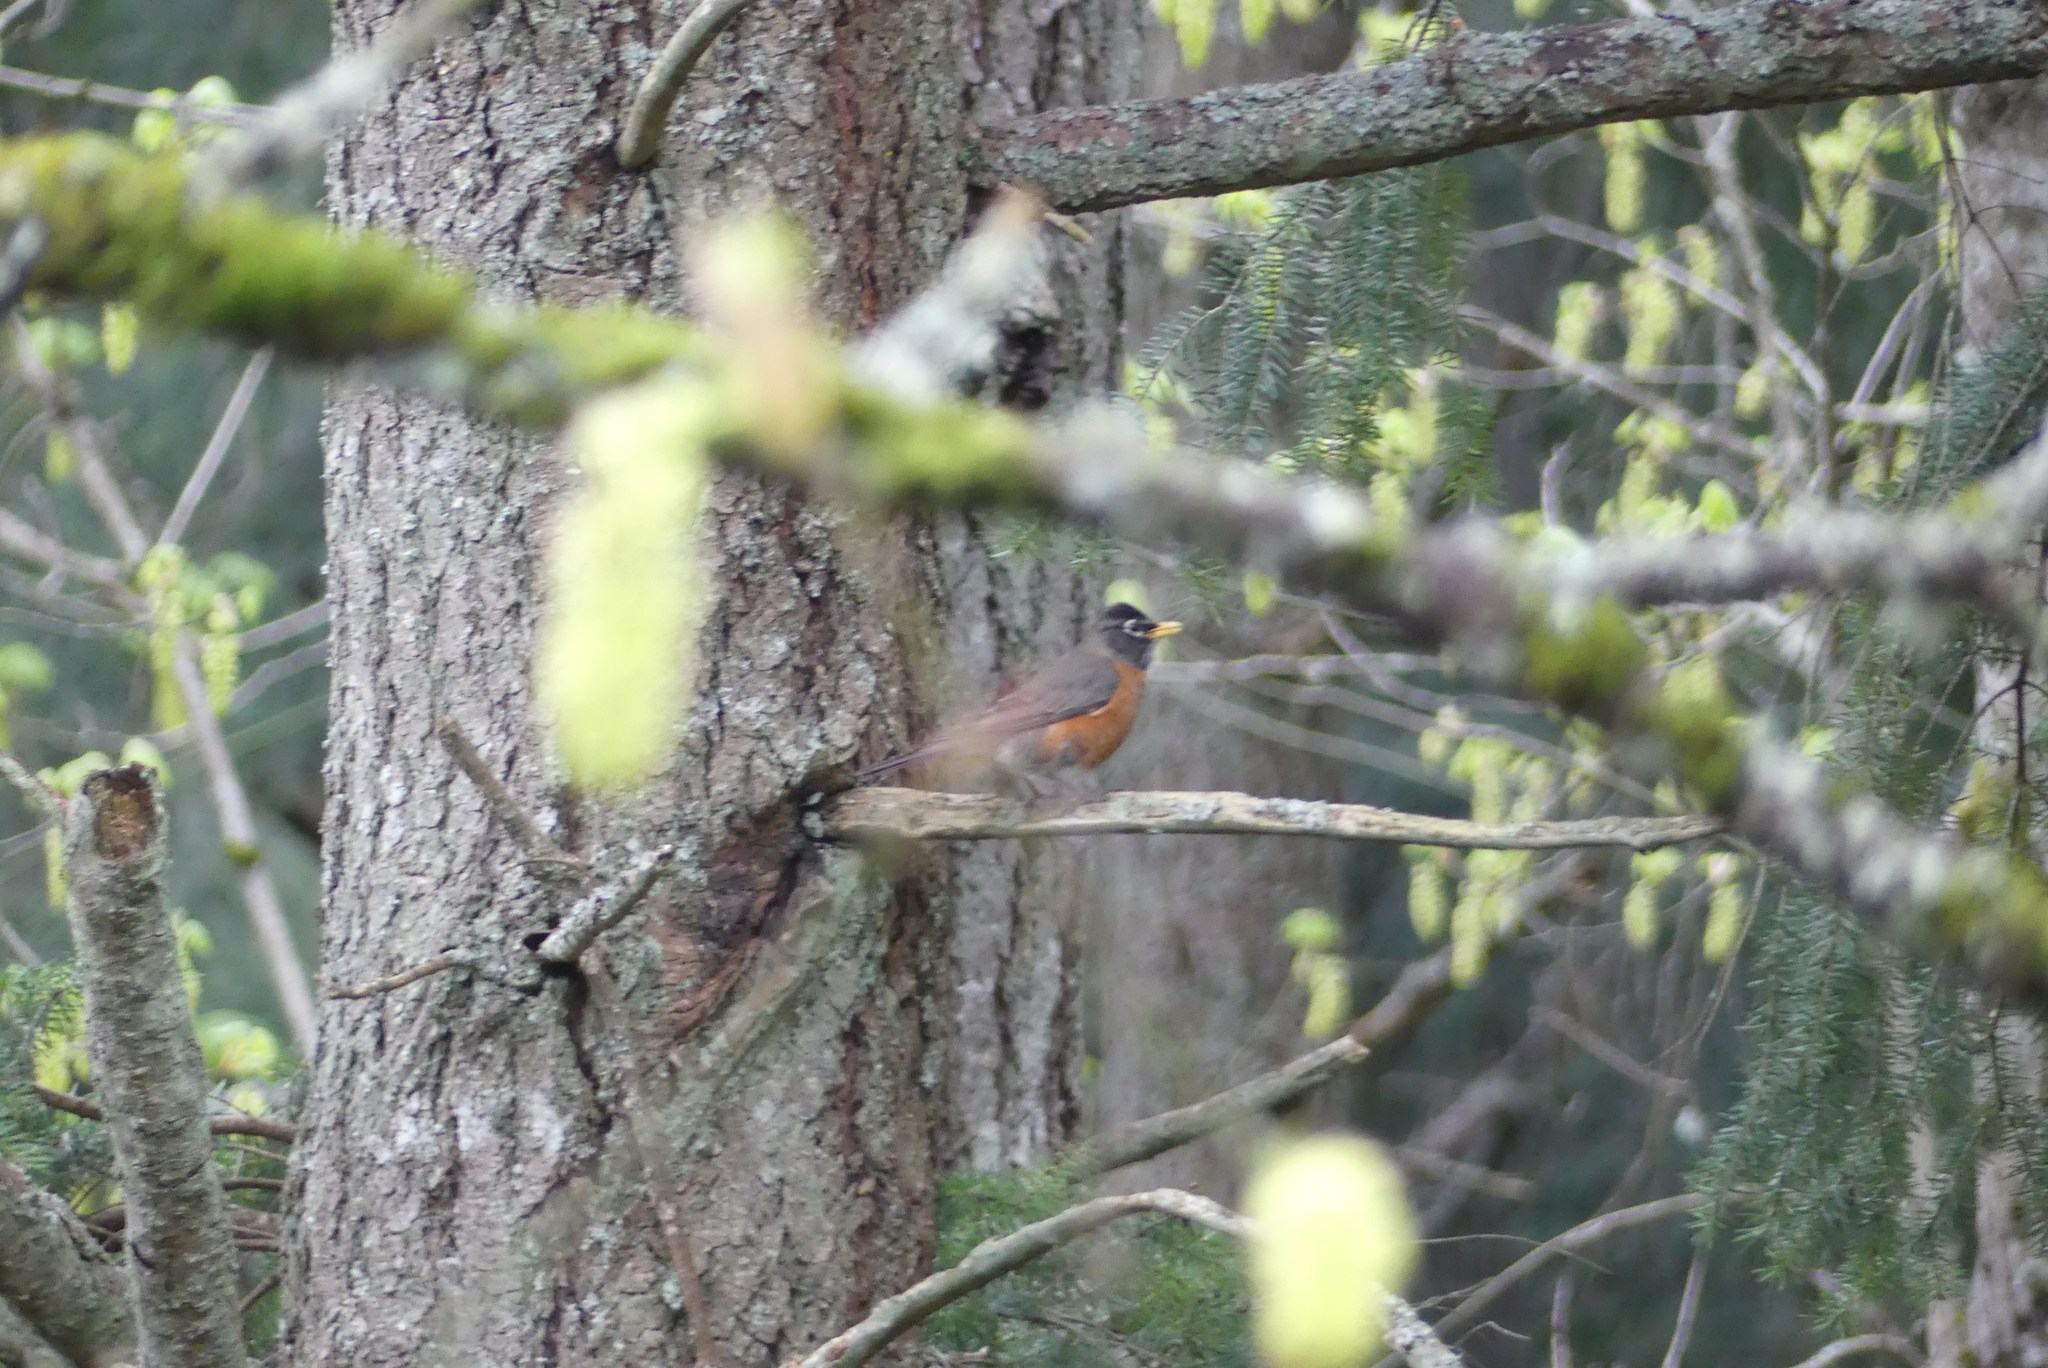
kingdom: Animalia
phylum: Chordata
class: Aves
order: Passeriformes
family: Turdidae
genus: Turdus
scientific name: Turdus migratorius
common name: American robin
